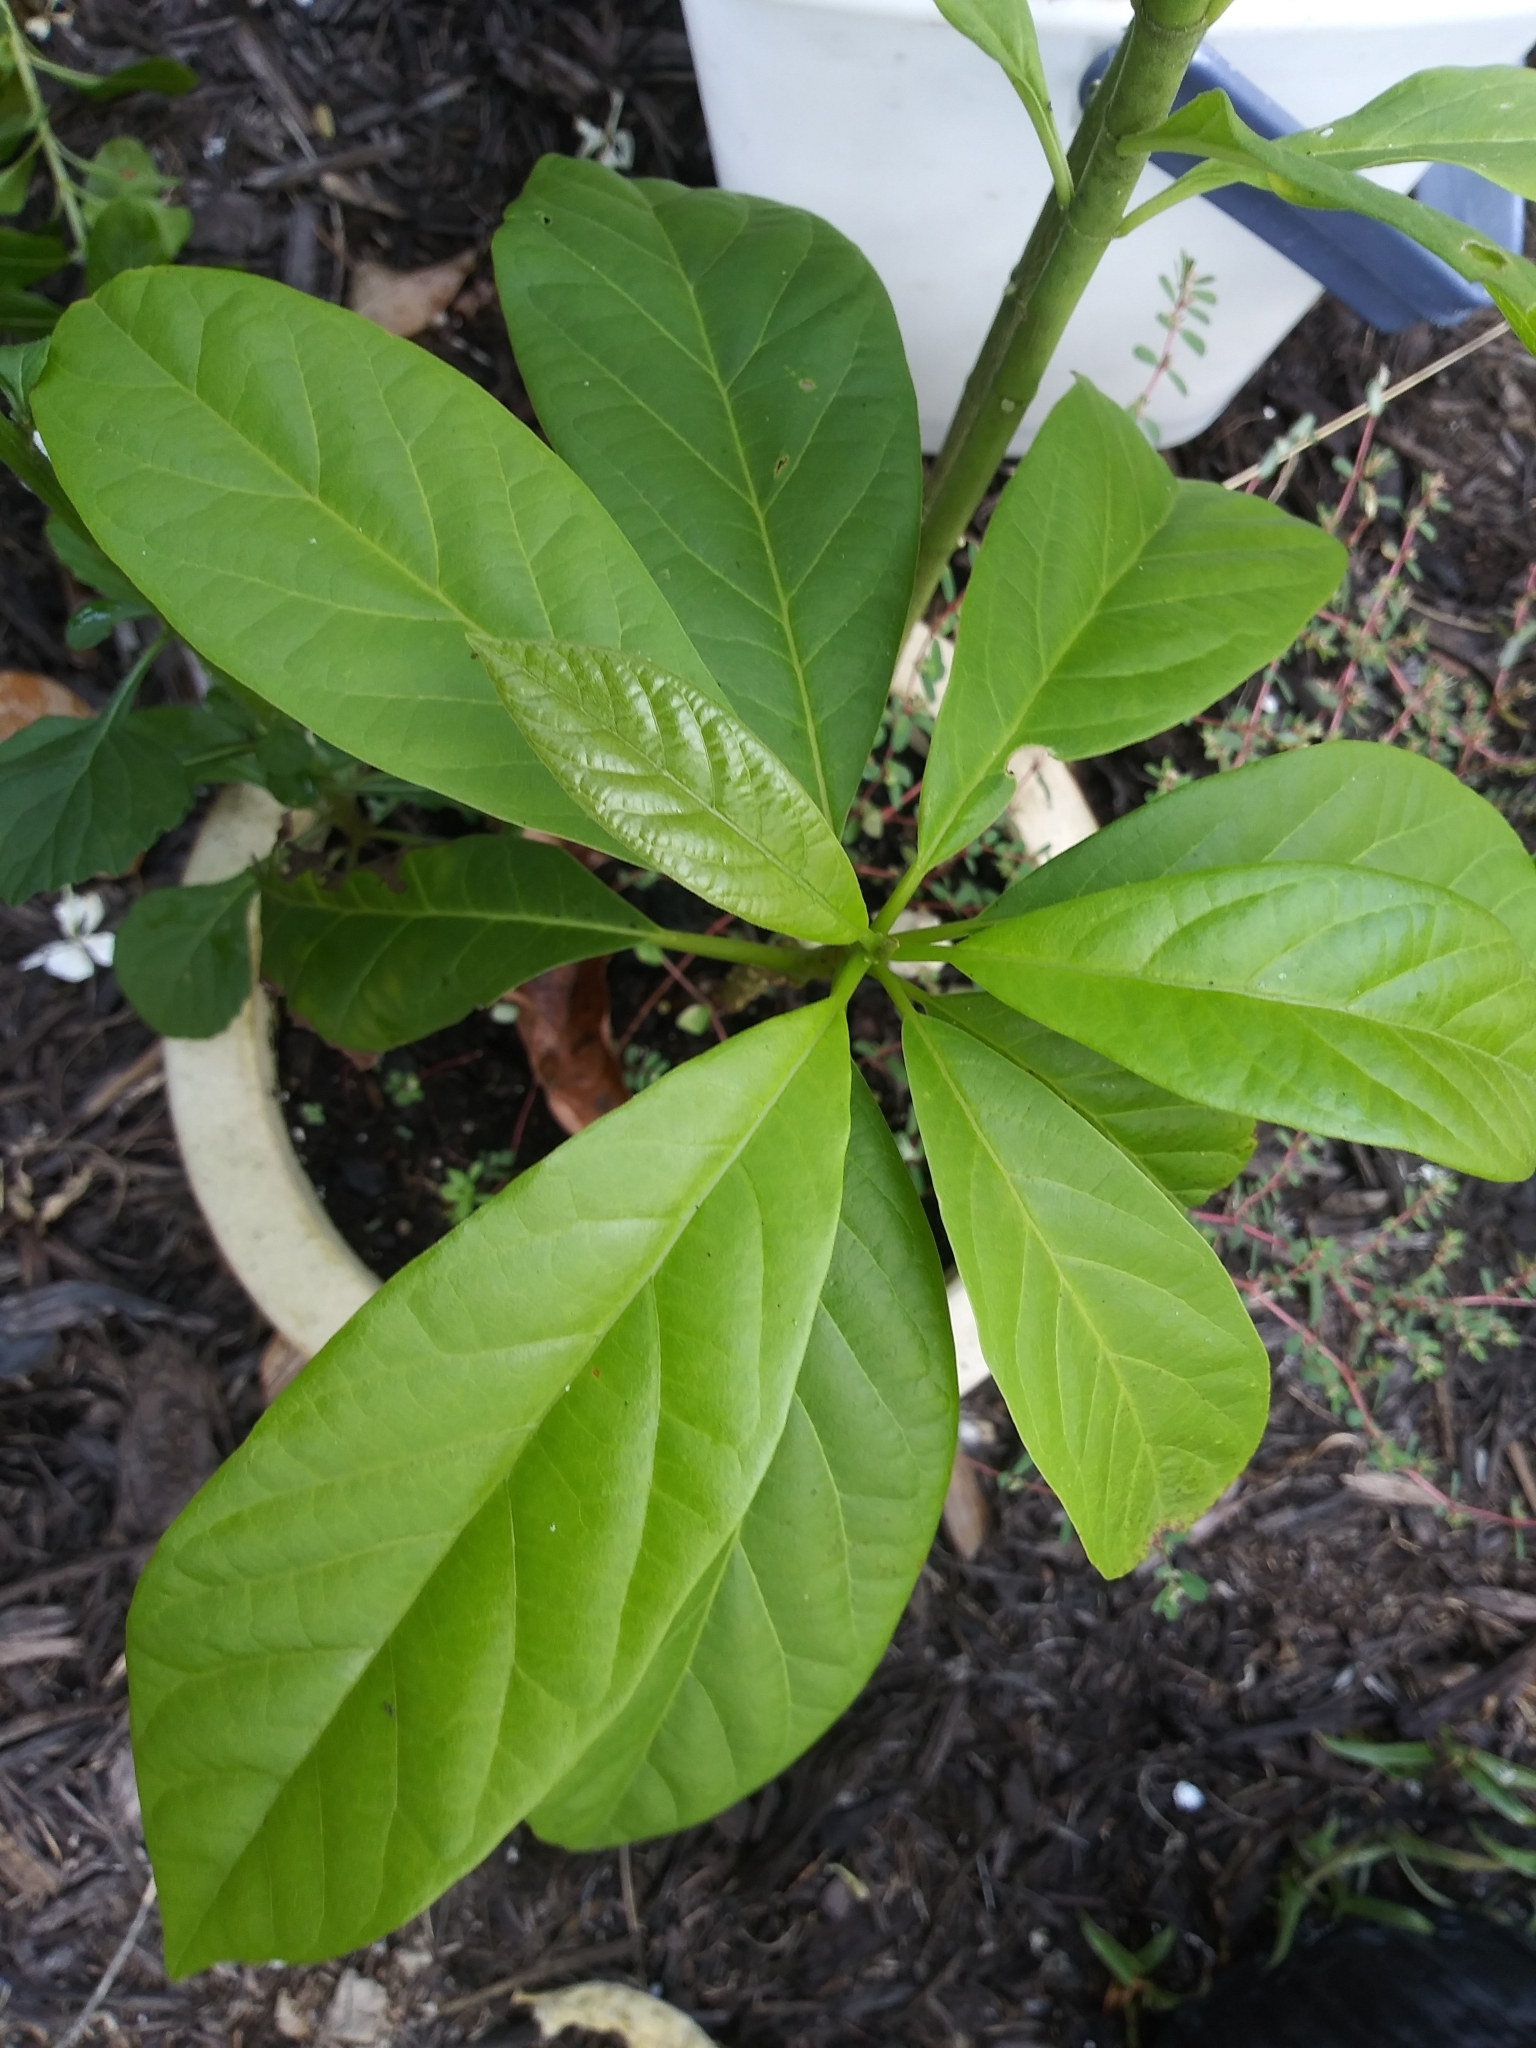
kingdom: Plantae
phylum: Tracheophyta
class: Magnoliopsida
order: Laurales
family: Lauraceae
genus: Persea
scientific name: Persea americana
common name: Avocado
